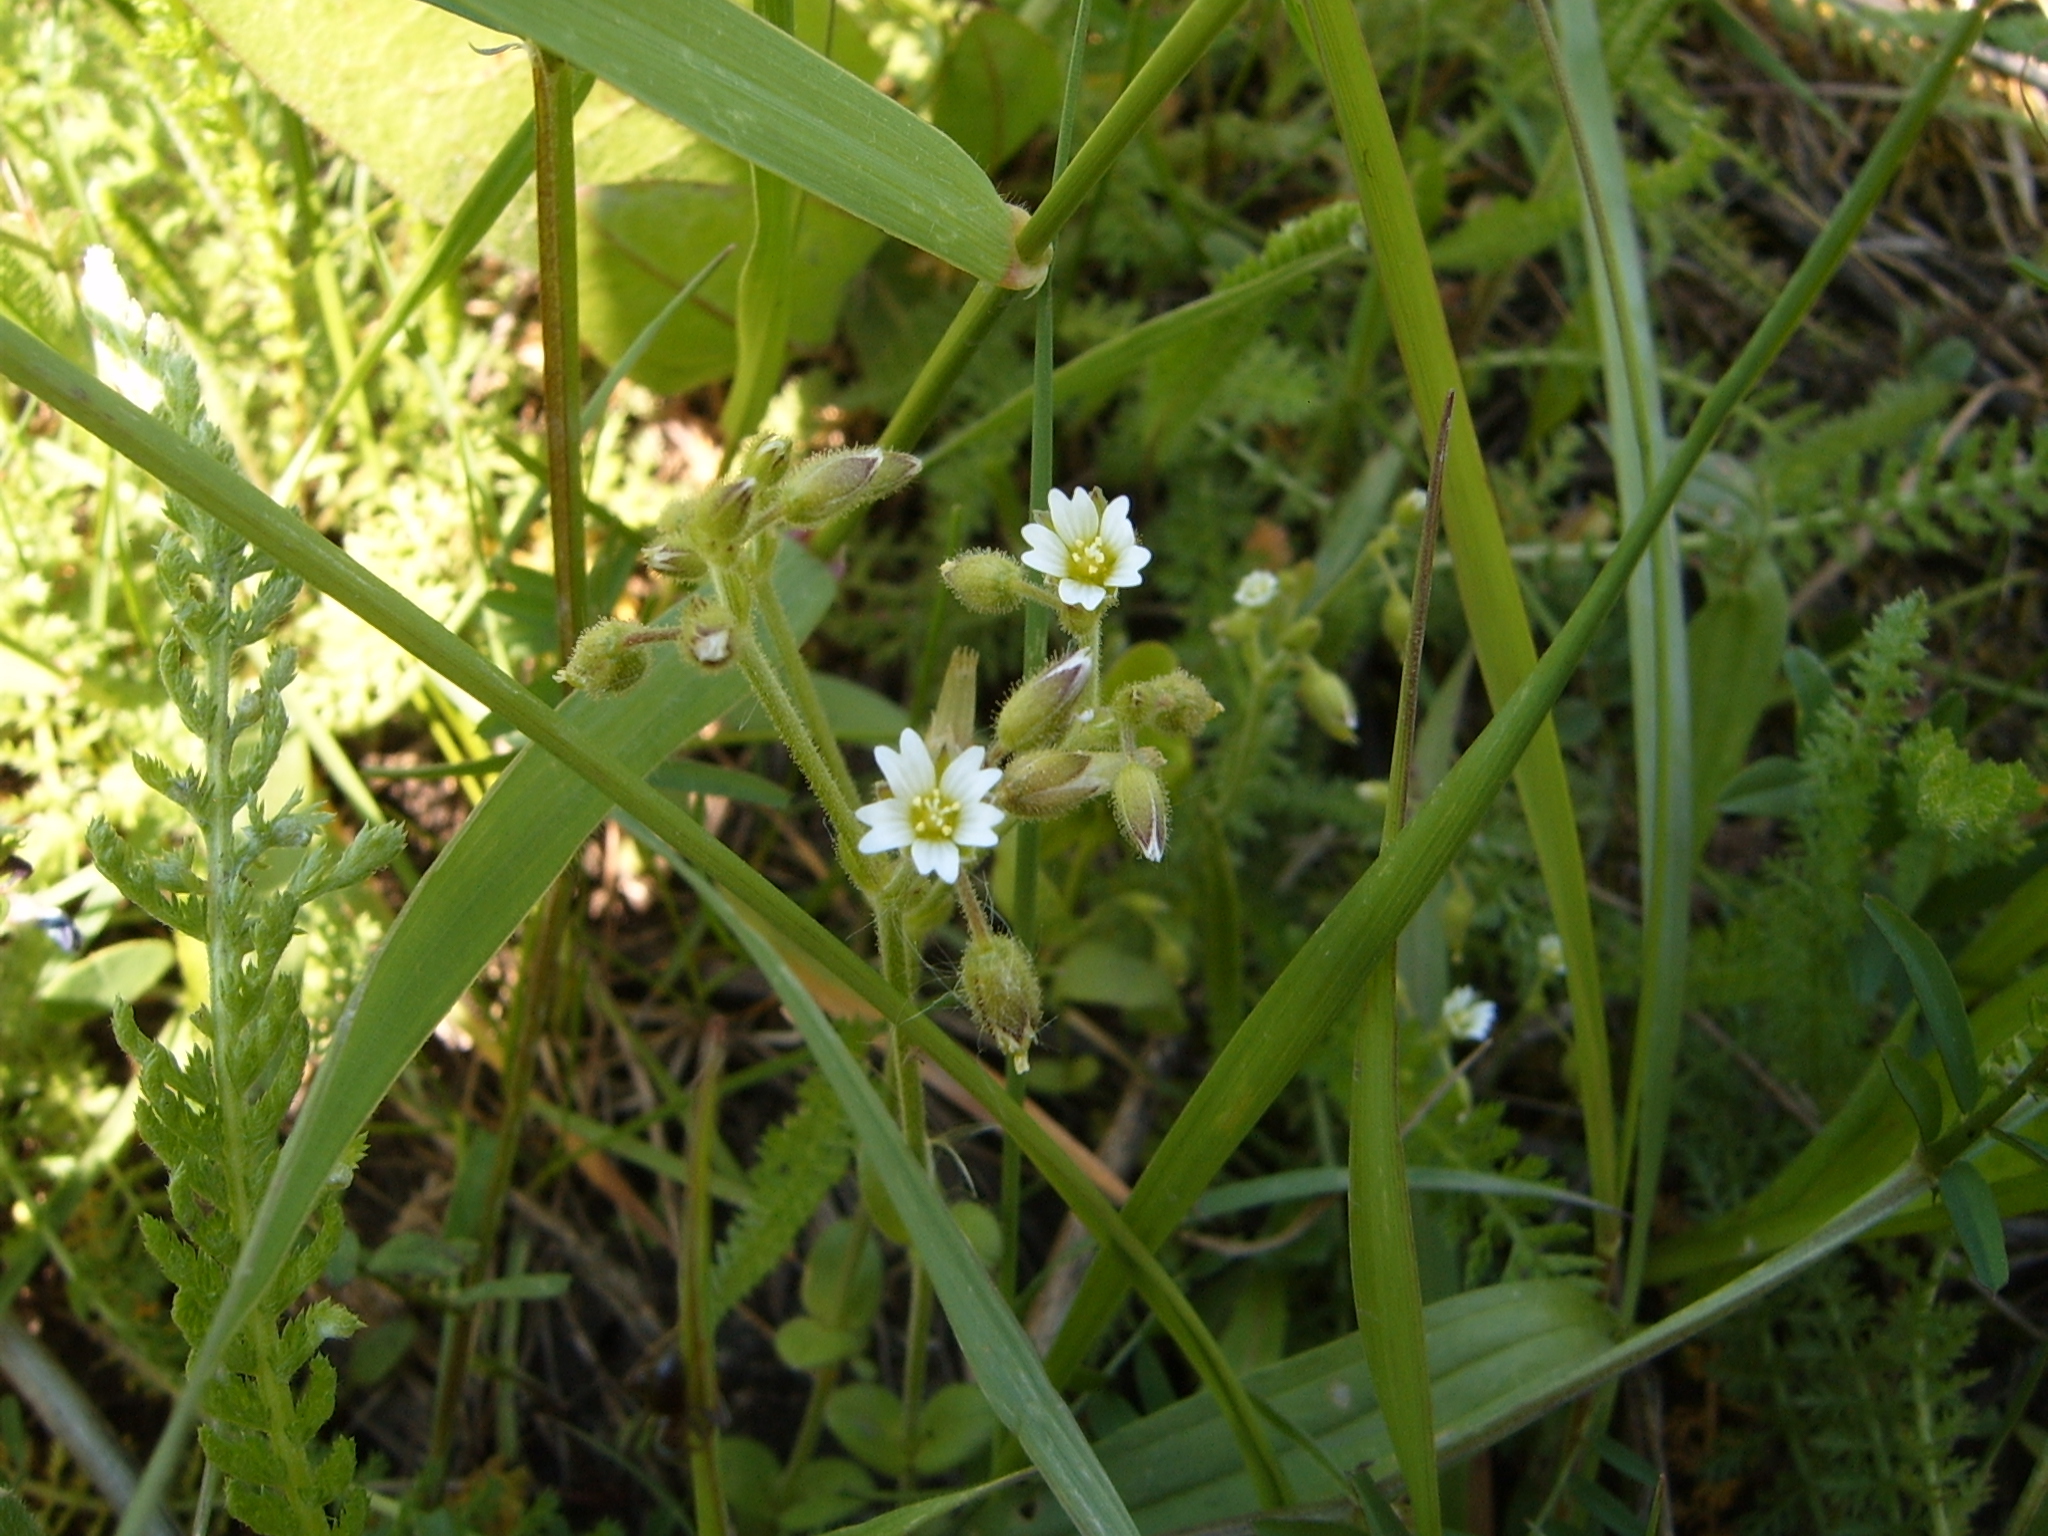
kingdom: Plantae
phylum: Tracheophyta
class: Magnoliopsida
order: Caryophyllales
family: Caryophyllaceae
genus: Cerastium
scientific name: Cerastium pumilum
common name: Dwarf mouse-ear
